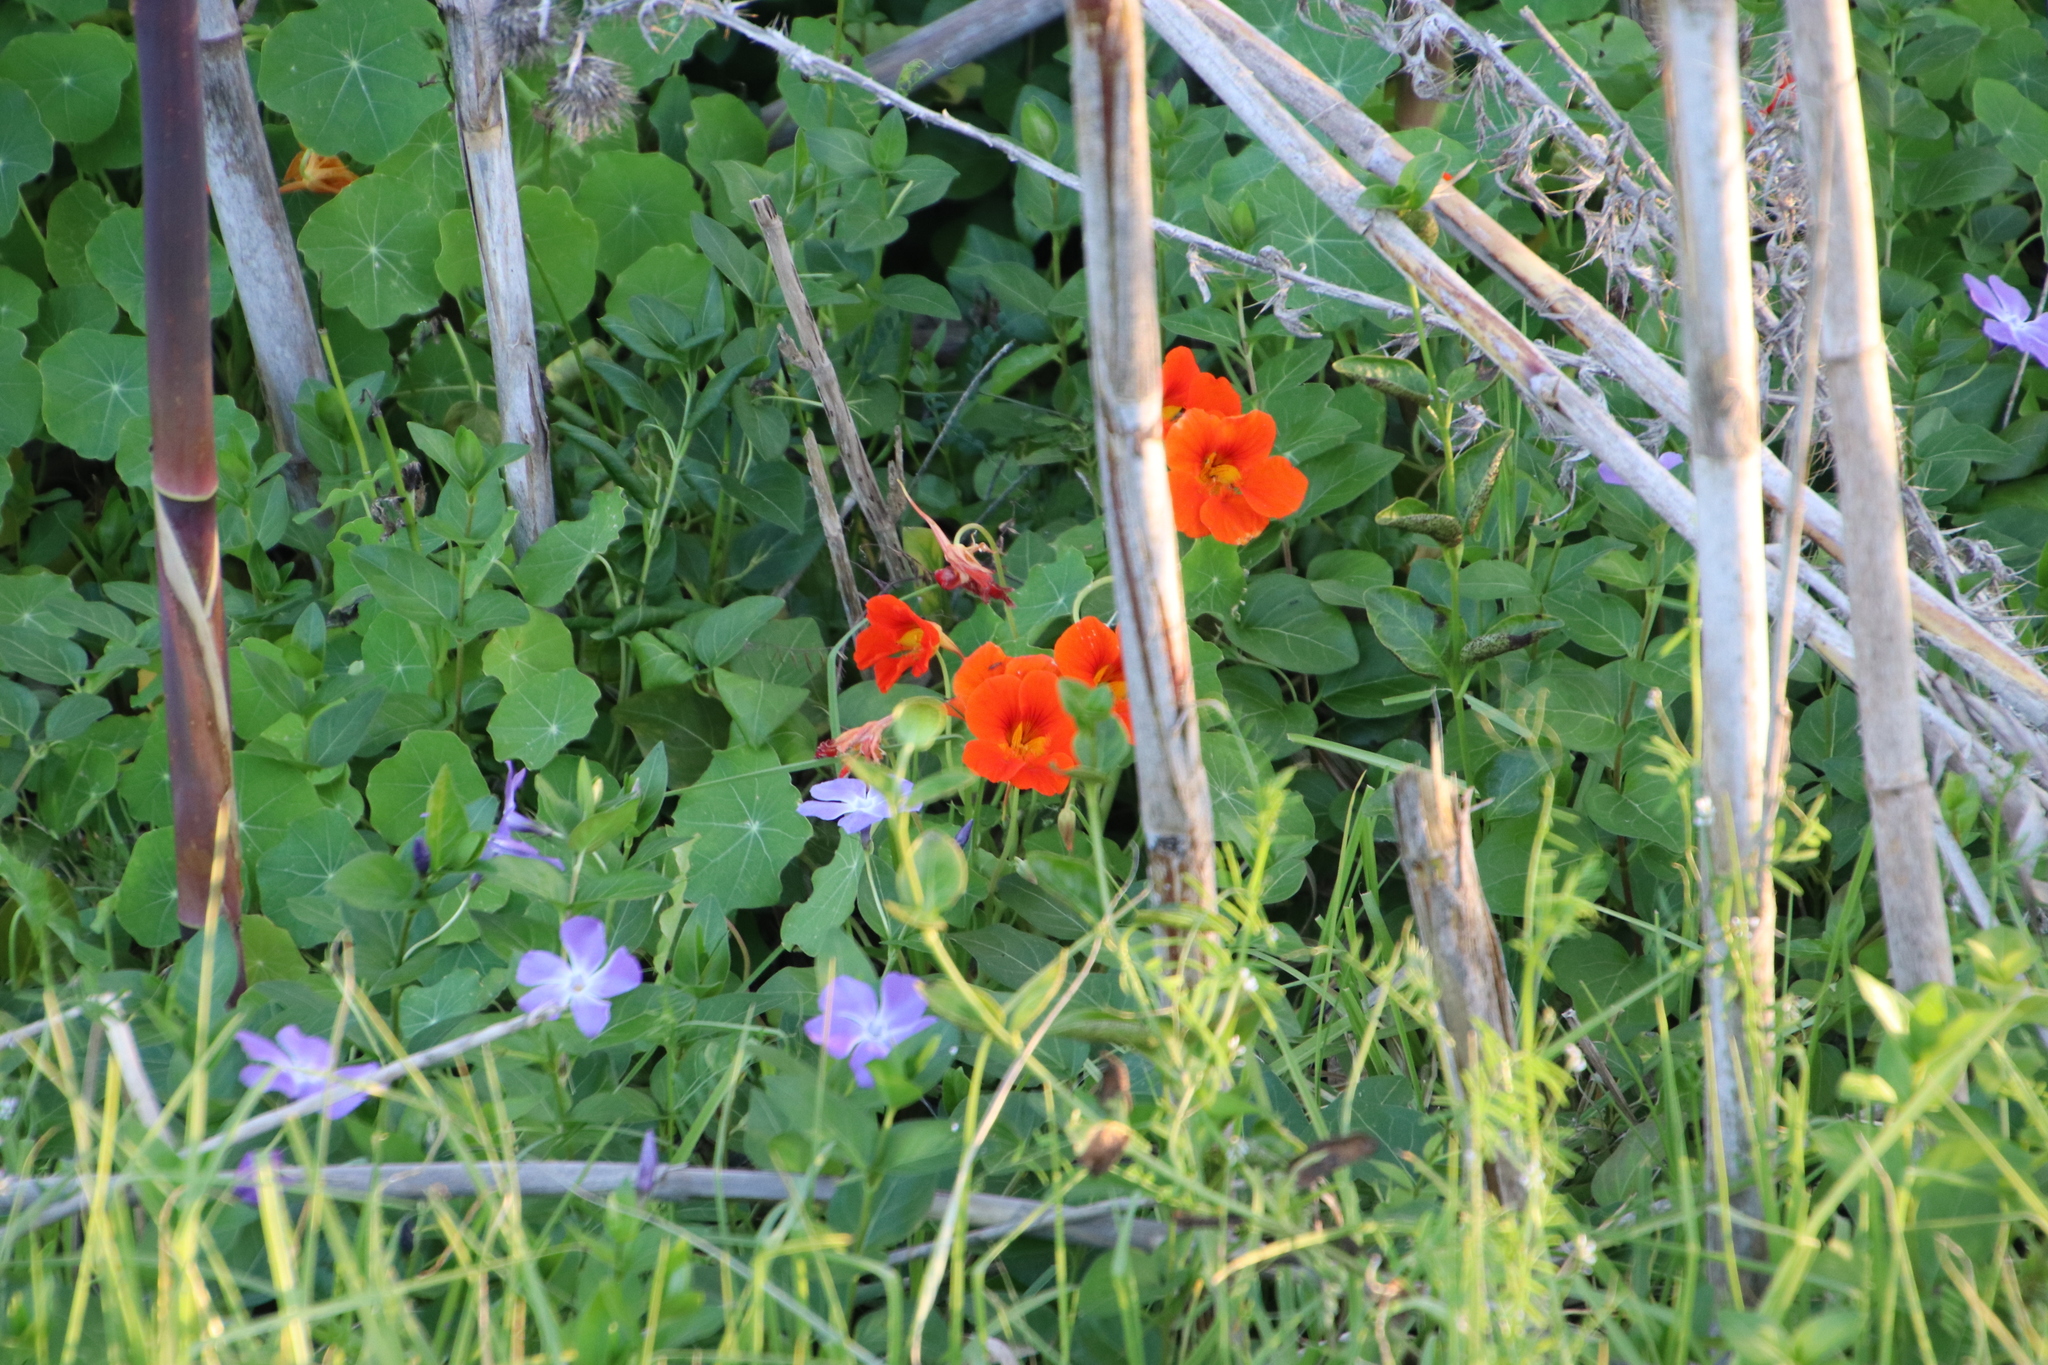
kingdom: Plantae
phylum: Tracheophyta
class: Magnoliopsida
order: Brassicales
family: Tropaeolaceae
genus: Tropaeolum
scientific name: Tropaeolum majus
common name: Nasturtium
